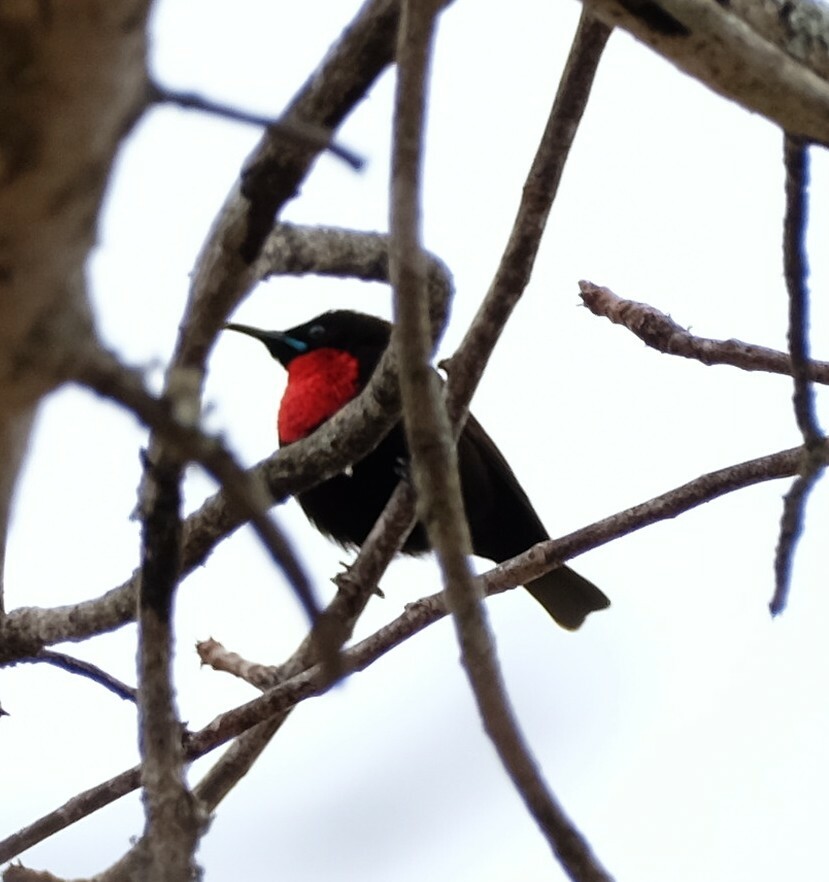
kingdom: Animalia
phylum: Chordata
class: Aves
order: Passeriformes
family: Nectariniidae
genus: Chalcomitra
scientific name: Chalcomitra senegalensis
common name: Scarlet-chested sunbird
